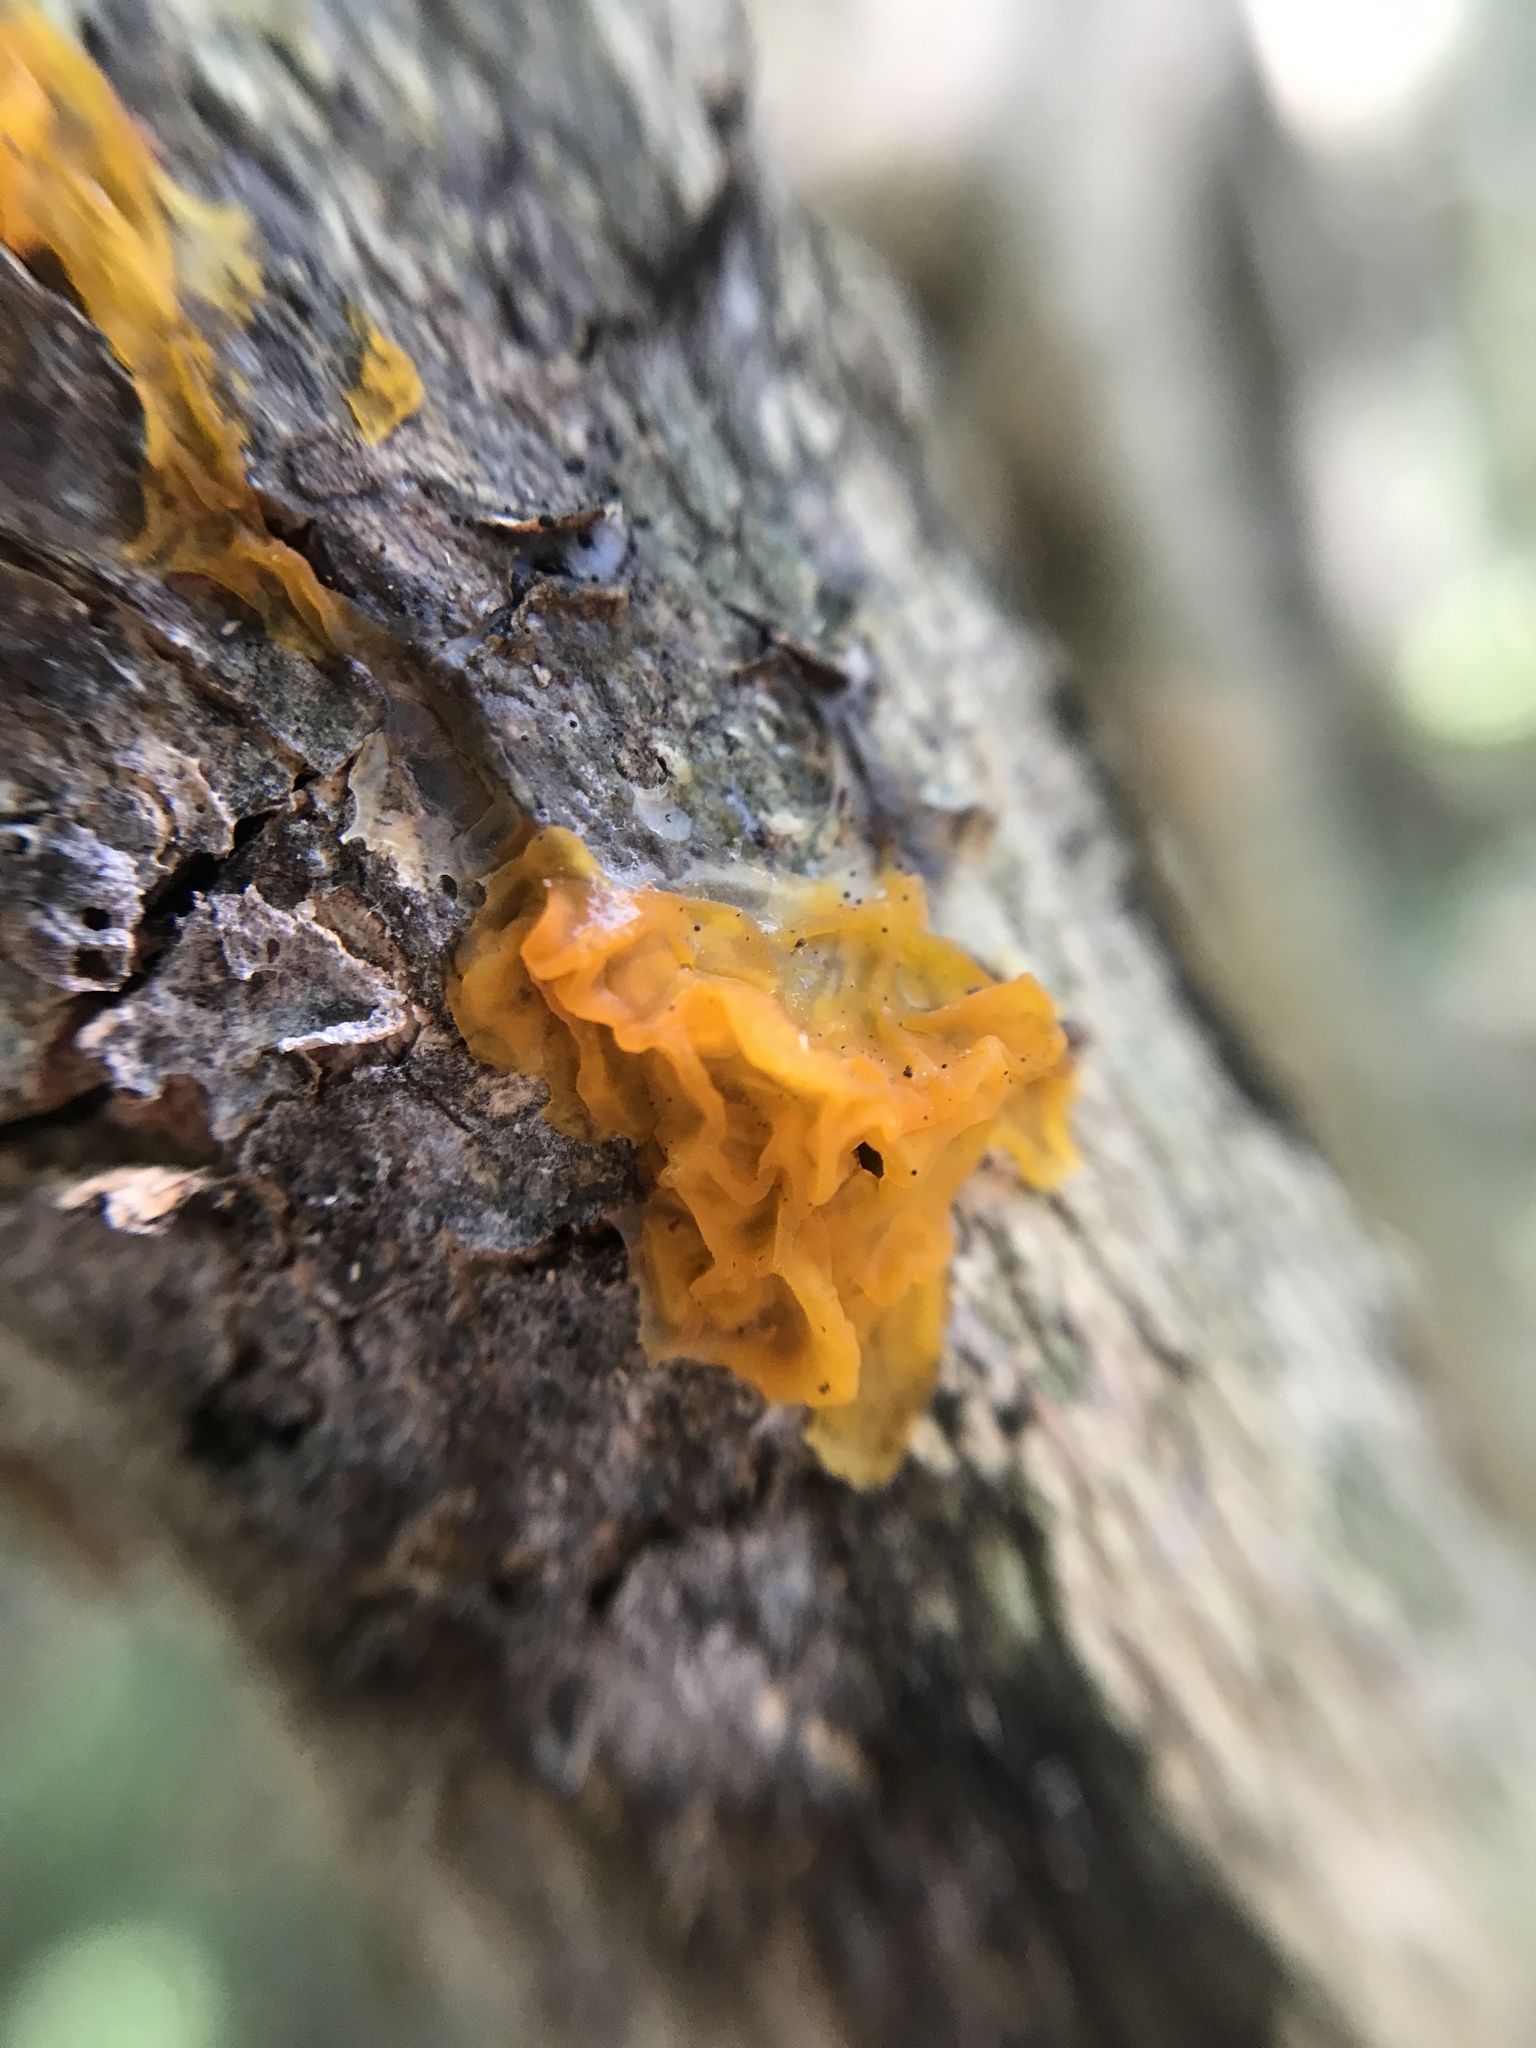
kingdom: Fungi
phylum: Basidiomycota
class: Tremellomycetes
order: Tremellales
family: Tremellaceae
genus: Tremella
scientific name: Tremella mesenterica
